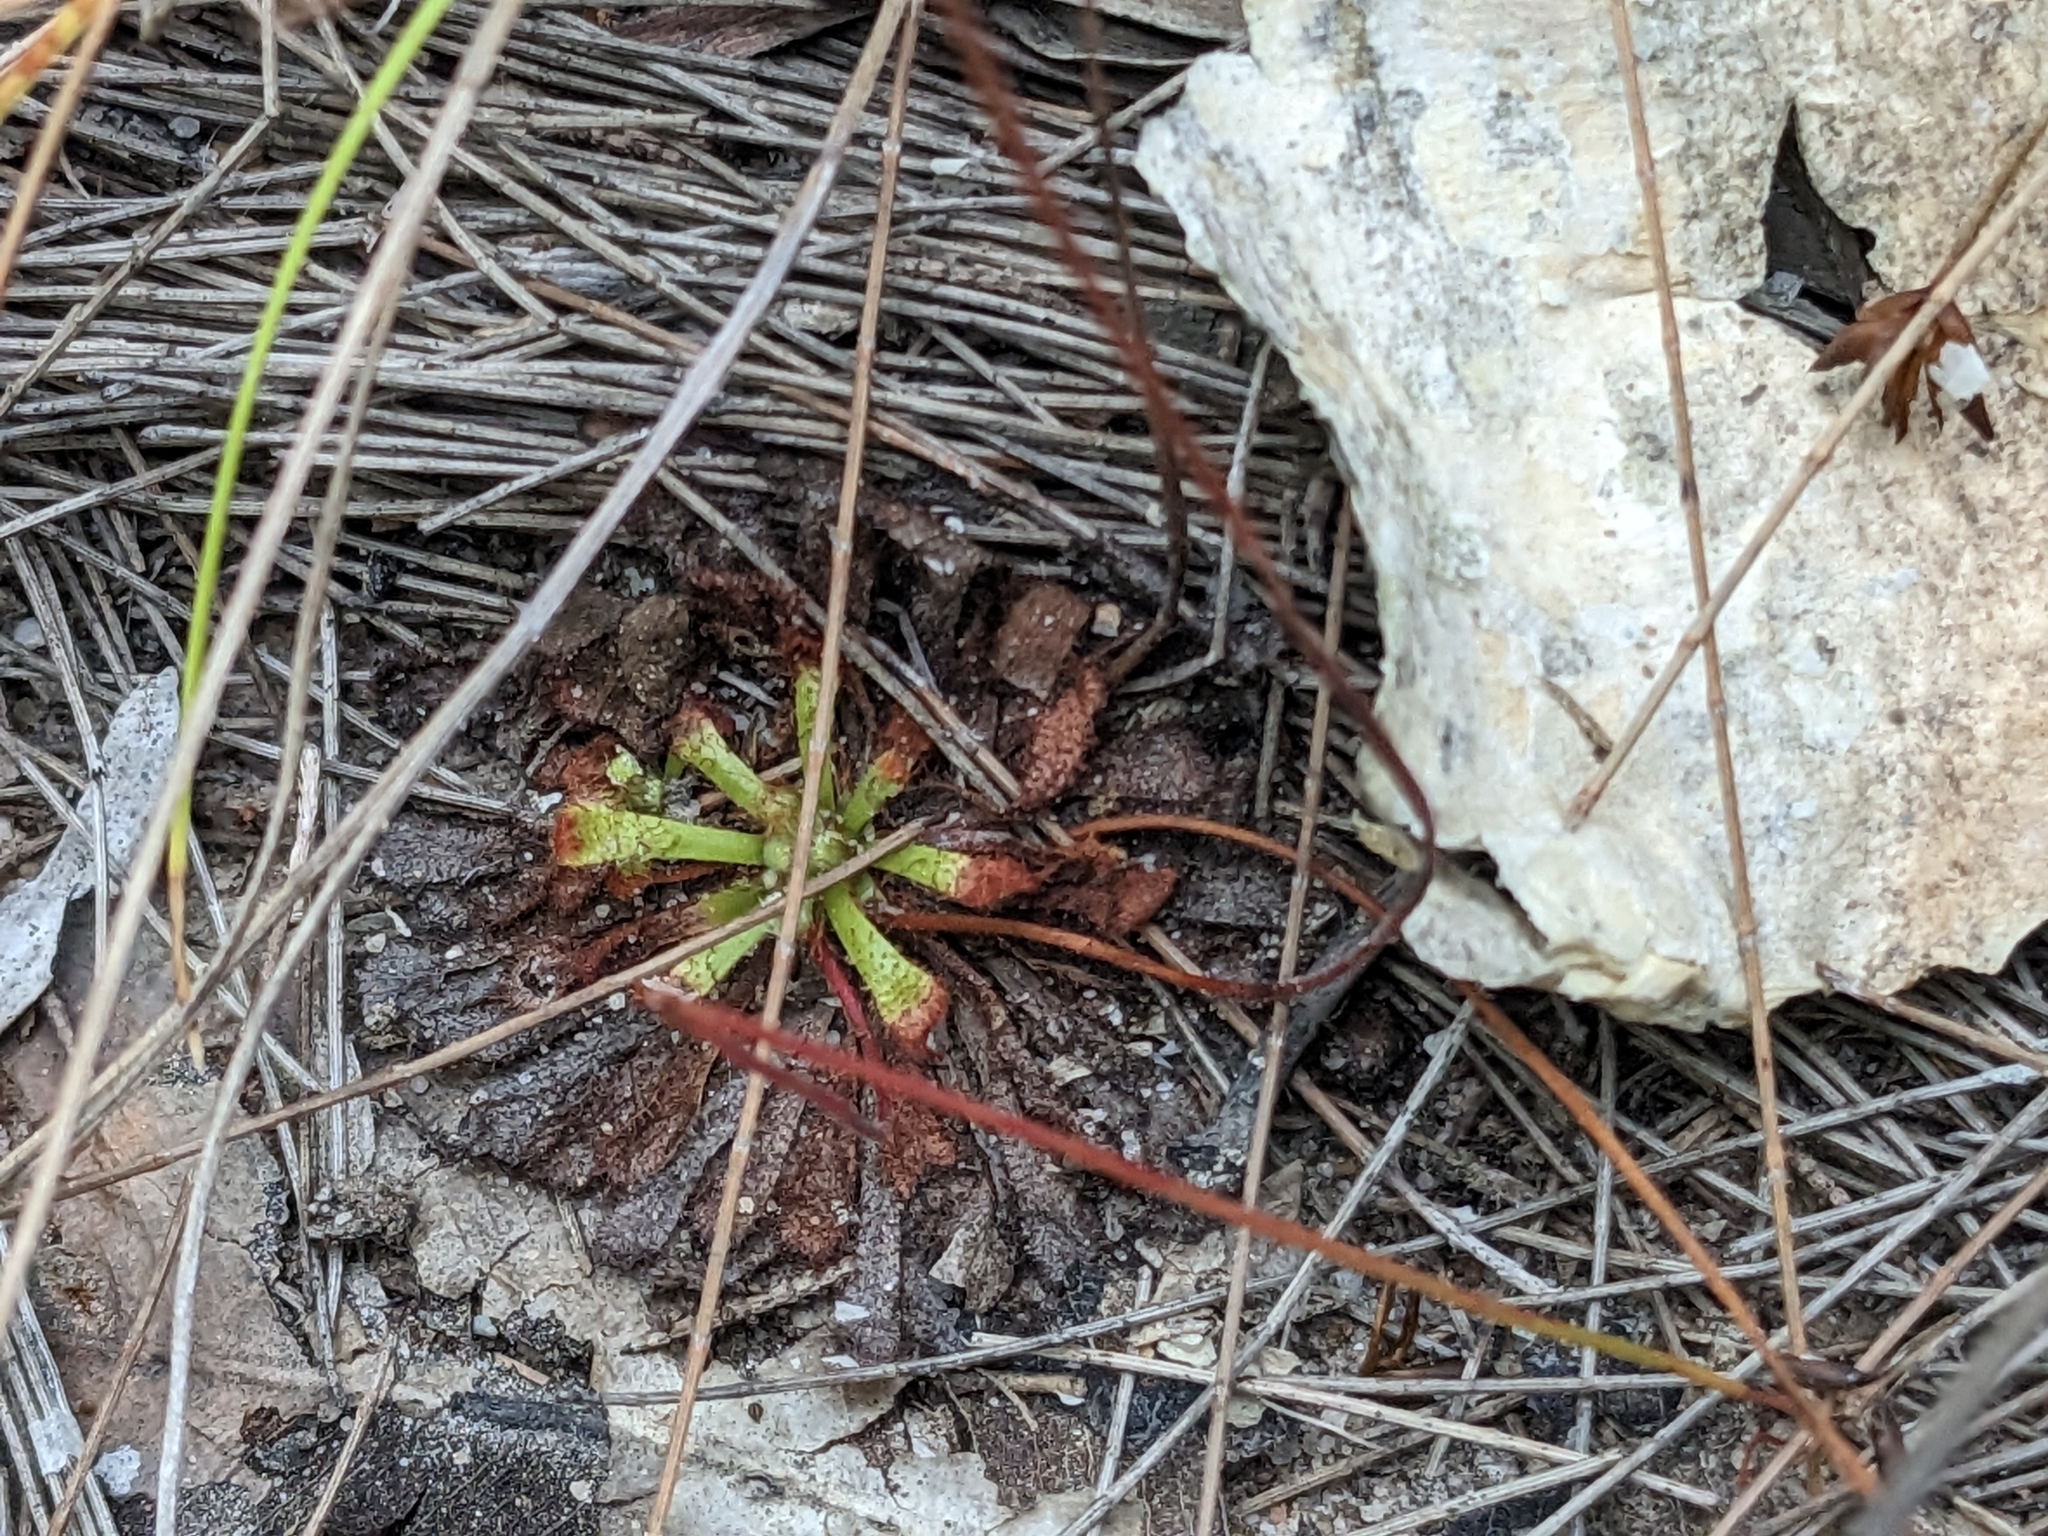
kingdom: Plantae
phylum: Tracheophyta
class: Magnoliopsida
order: Caryophyllales
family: Droseraceae
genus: Drosera
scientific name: Drosera spatulata
